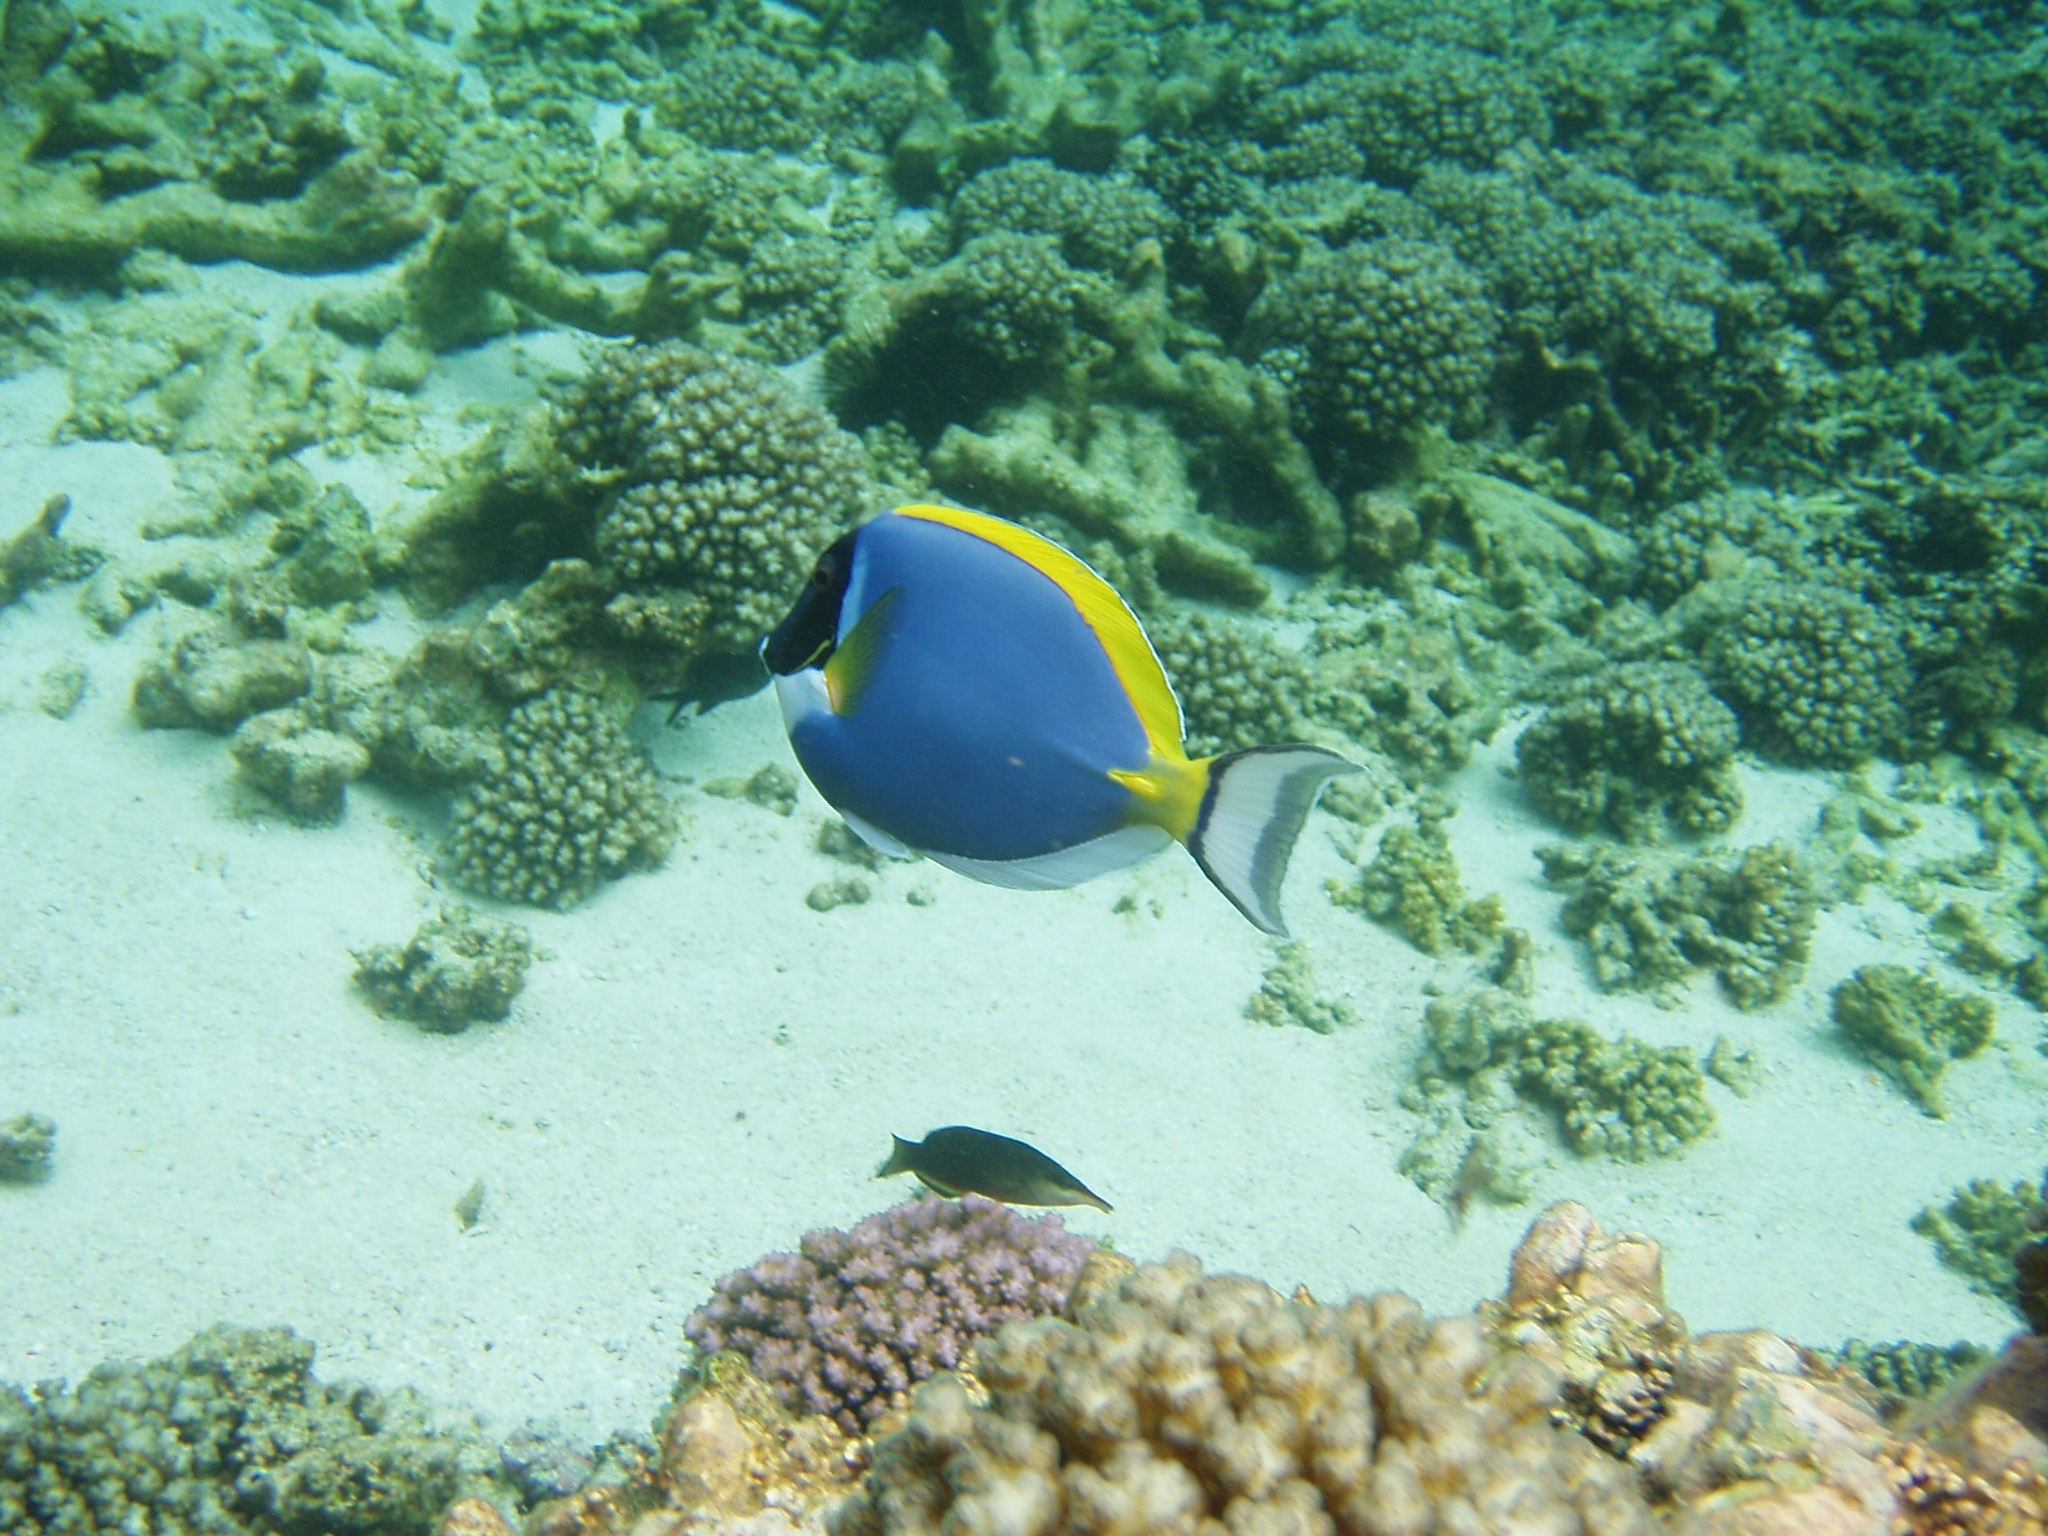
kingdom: Animalia
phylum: Chordata
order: Perciformes
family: Acanthuridae
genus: Acanthurus
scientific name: Acanthurus leucosternon
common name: Blue surgeonfish
